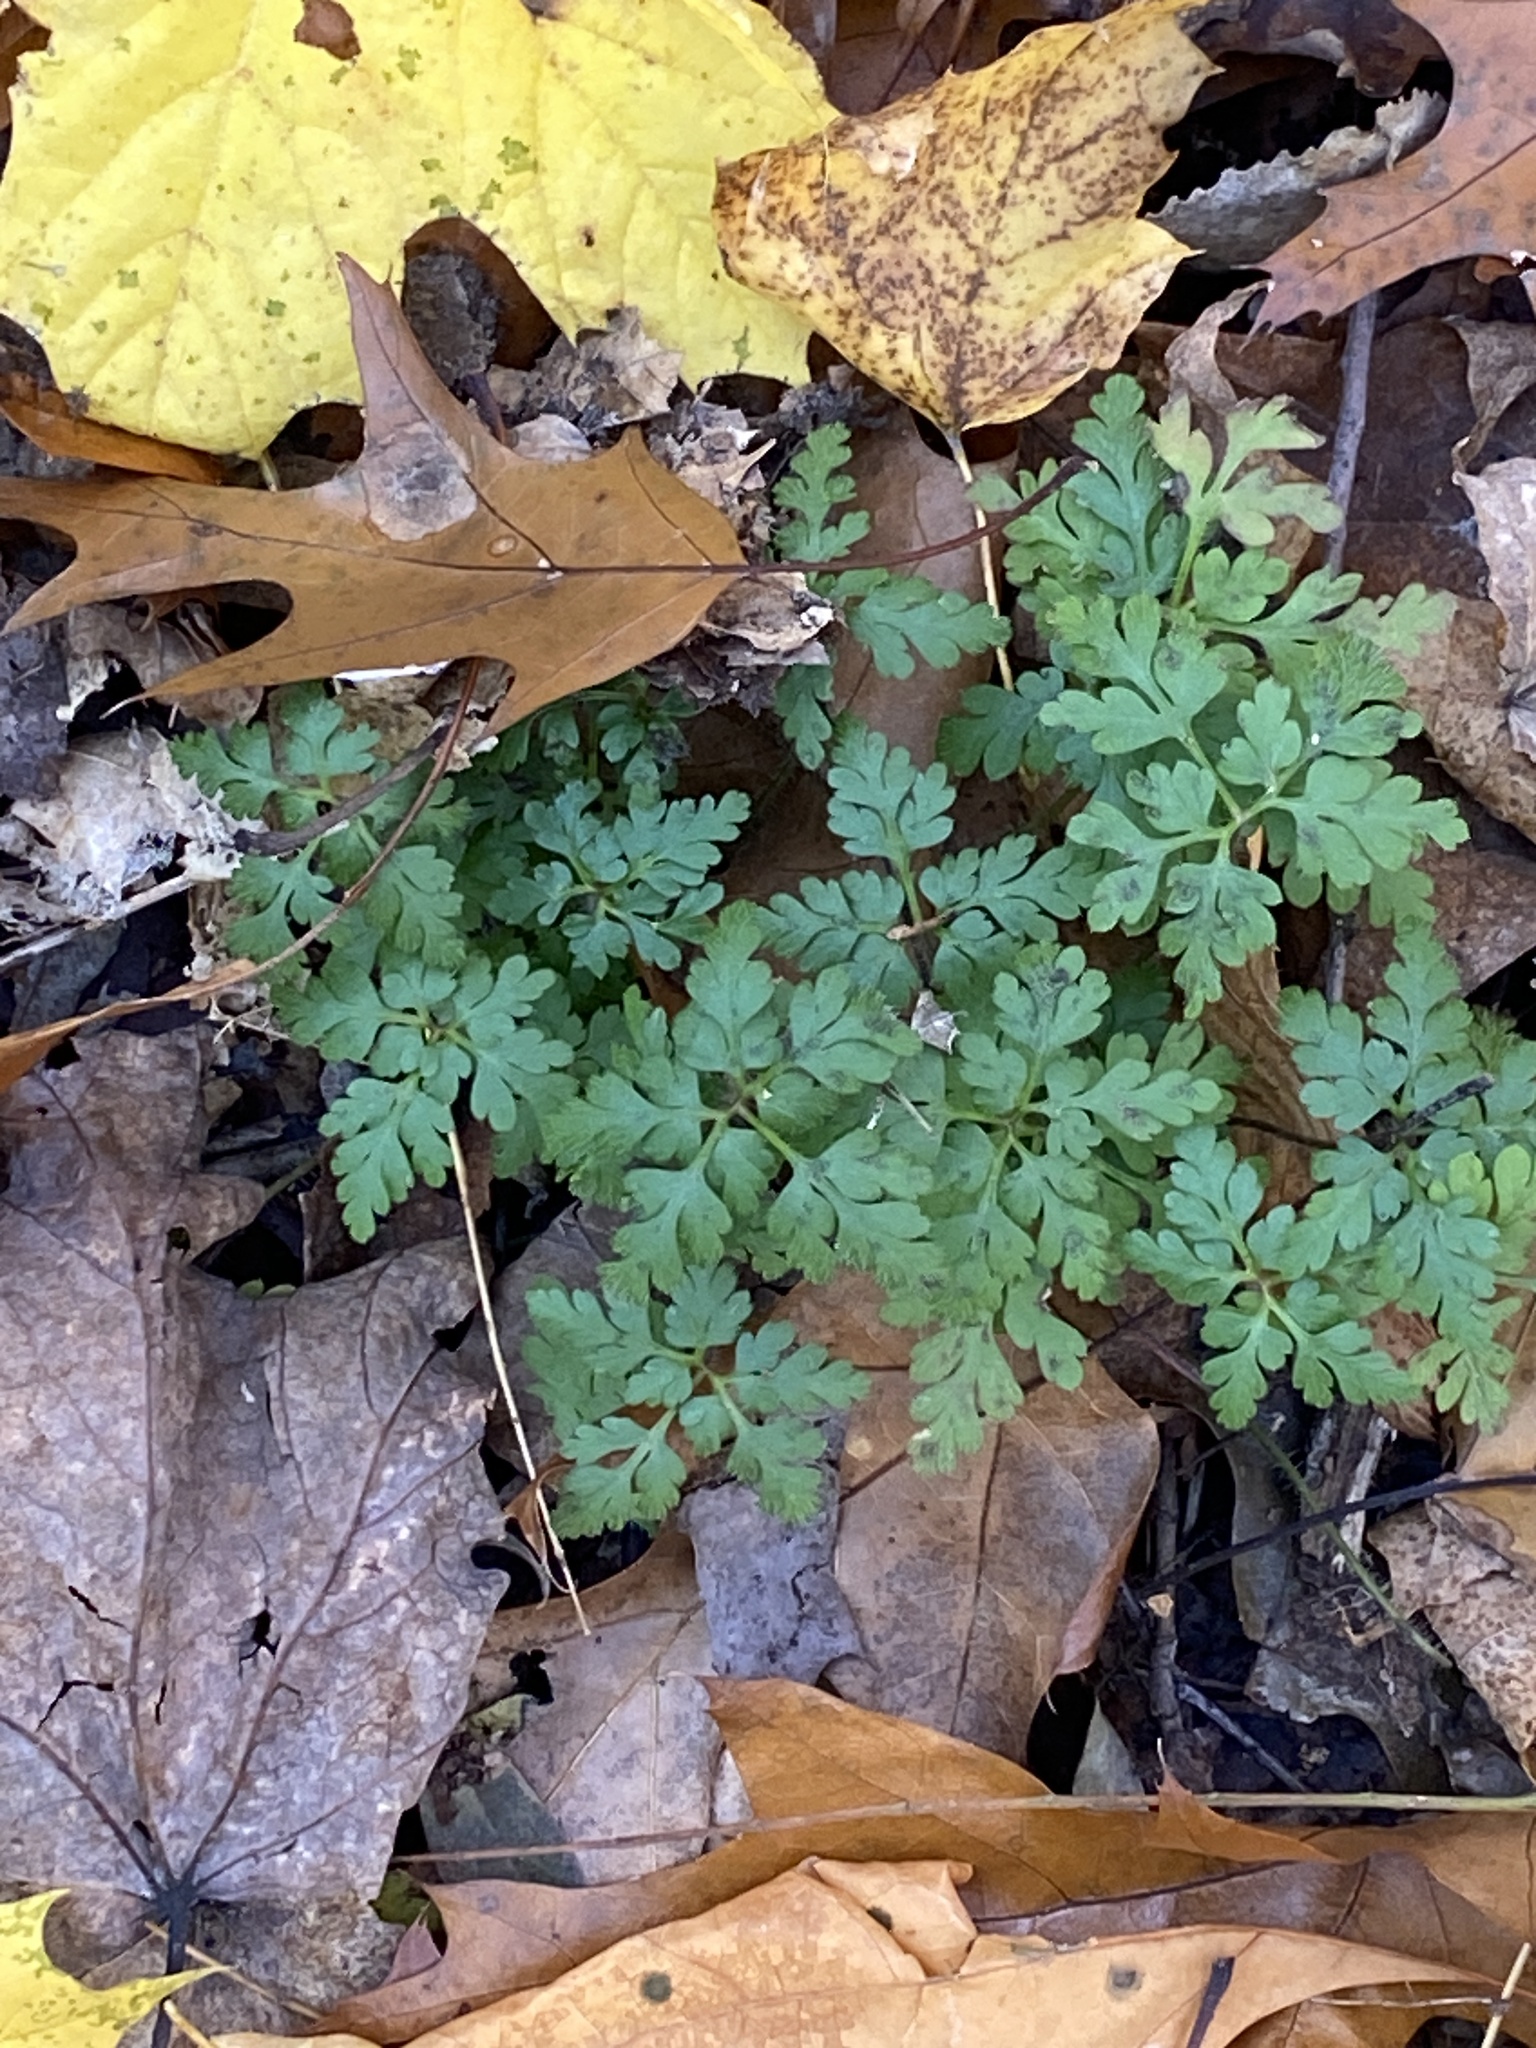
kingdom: Plantae
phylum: Tracheophyta
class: Magnoliopsida
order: Geraniales
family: Geraniaceae
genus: Geranium
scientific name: Geranium robertianum
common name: Herb-robert
